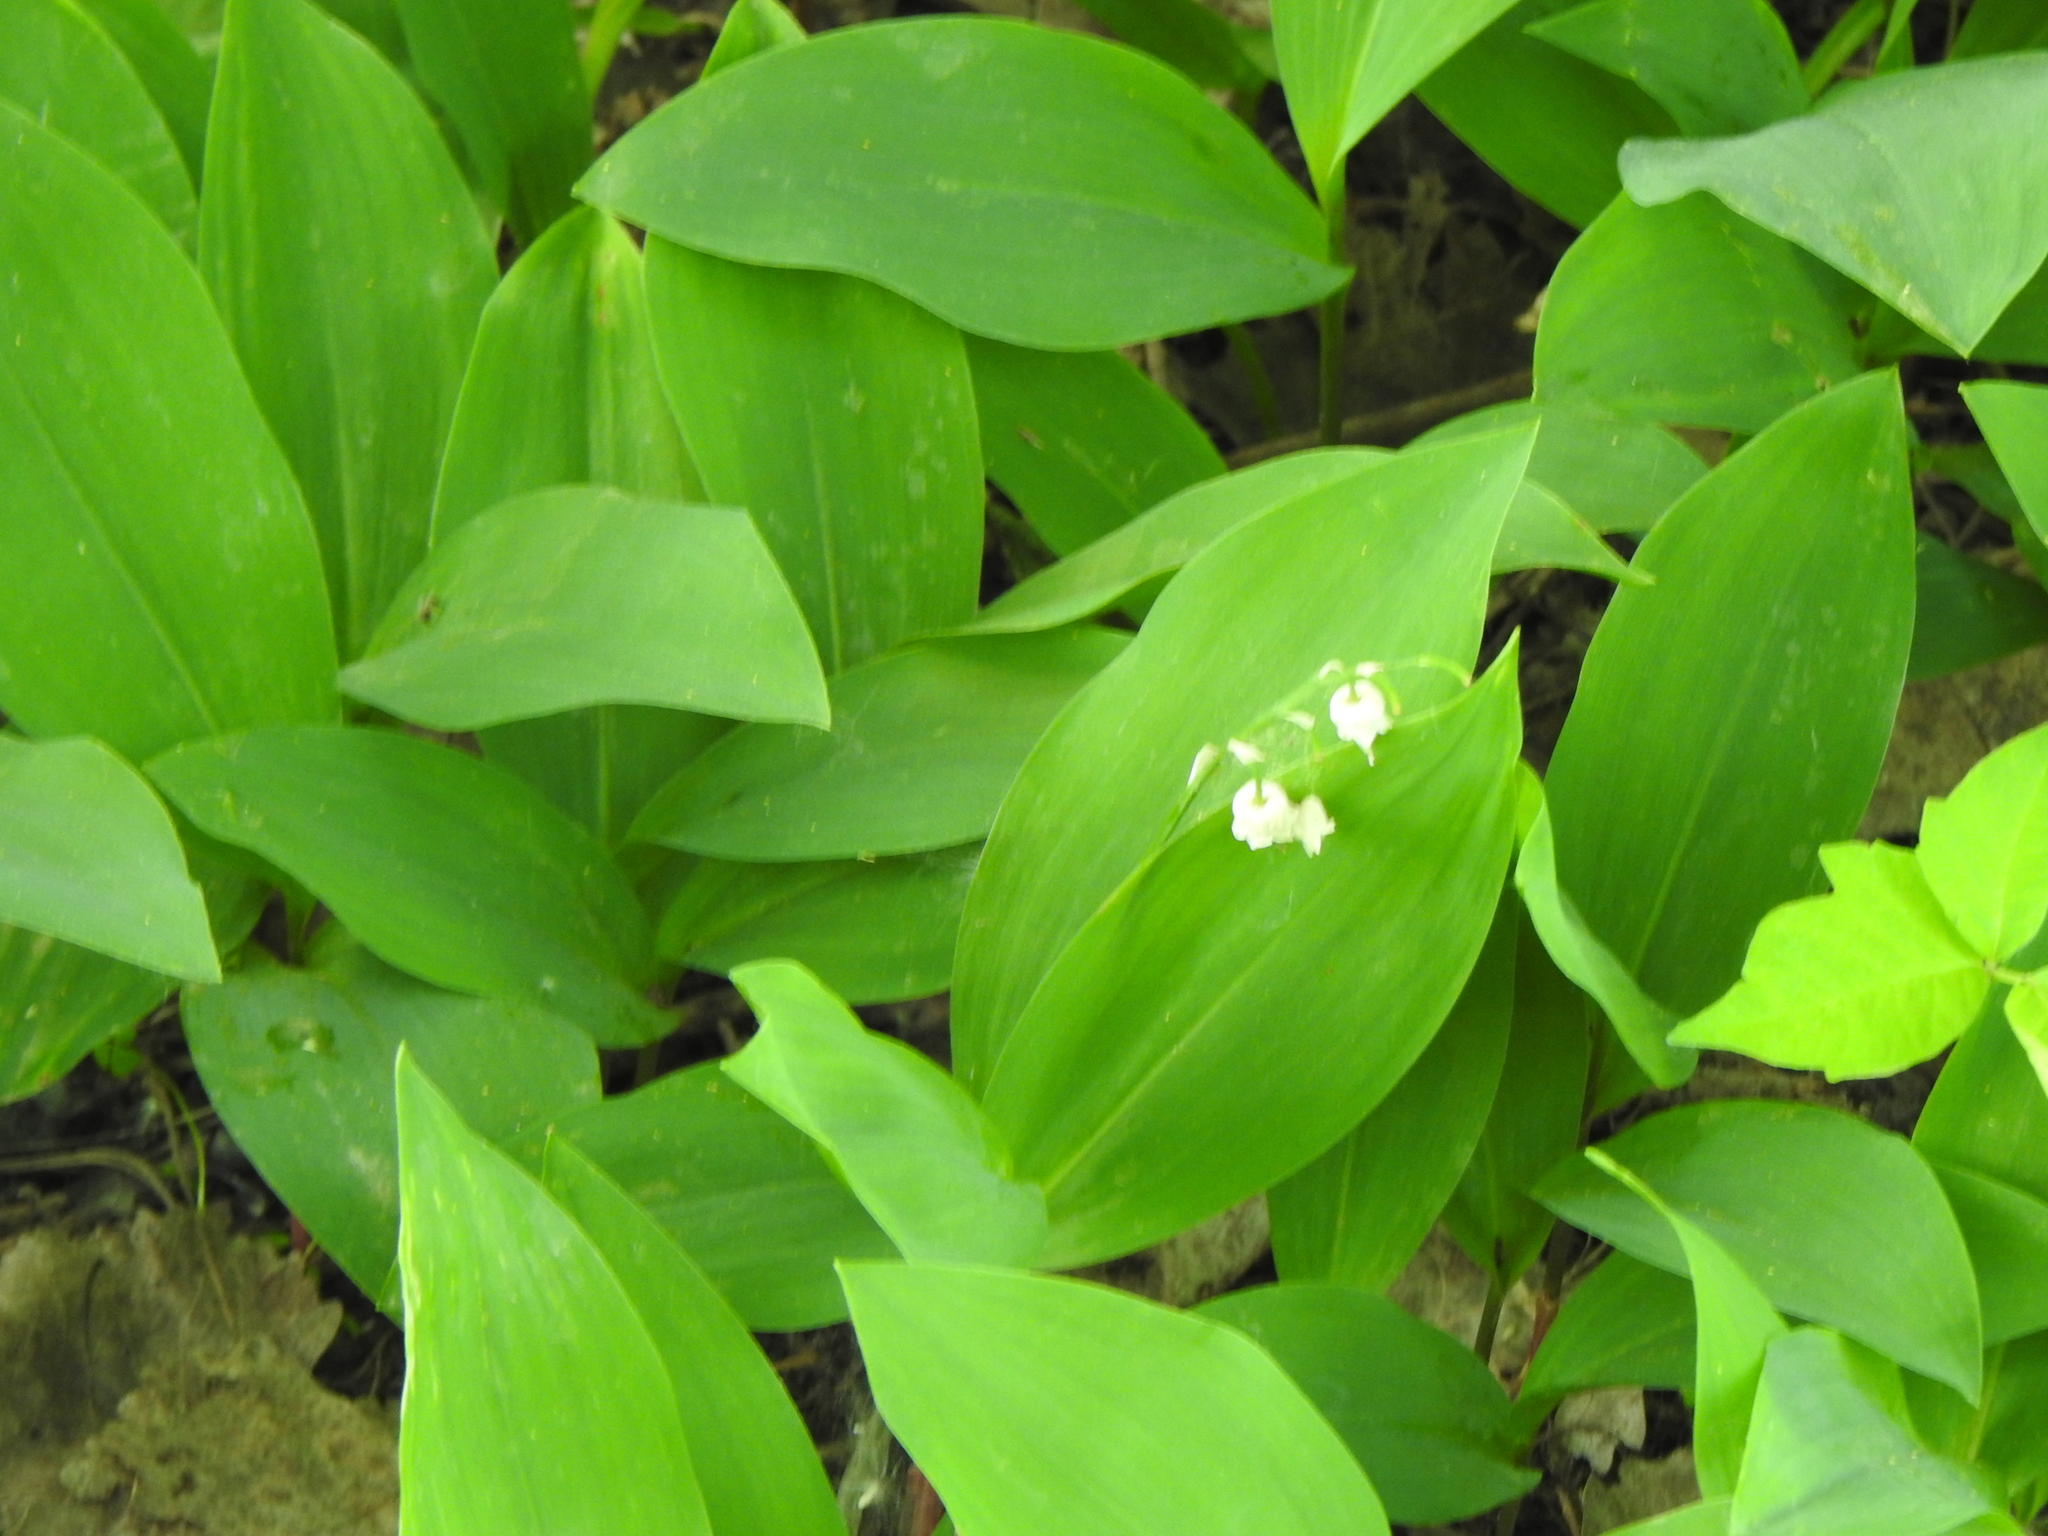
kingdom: Plantae
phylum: Tracheophyta
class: Liliopsida
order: Asparagales
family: Asparagaceae
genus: Convallaria
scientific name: Convallaria majalis
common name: Lily-of-the-valley
